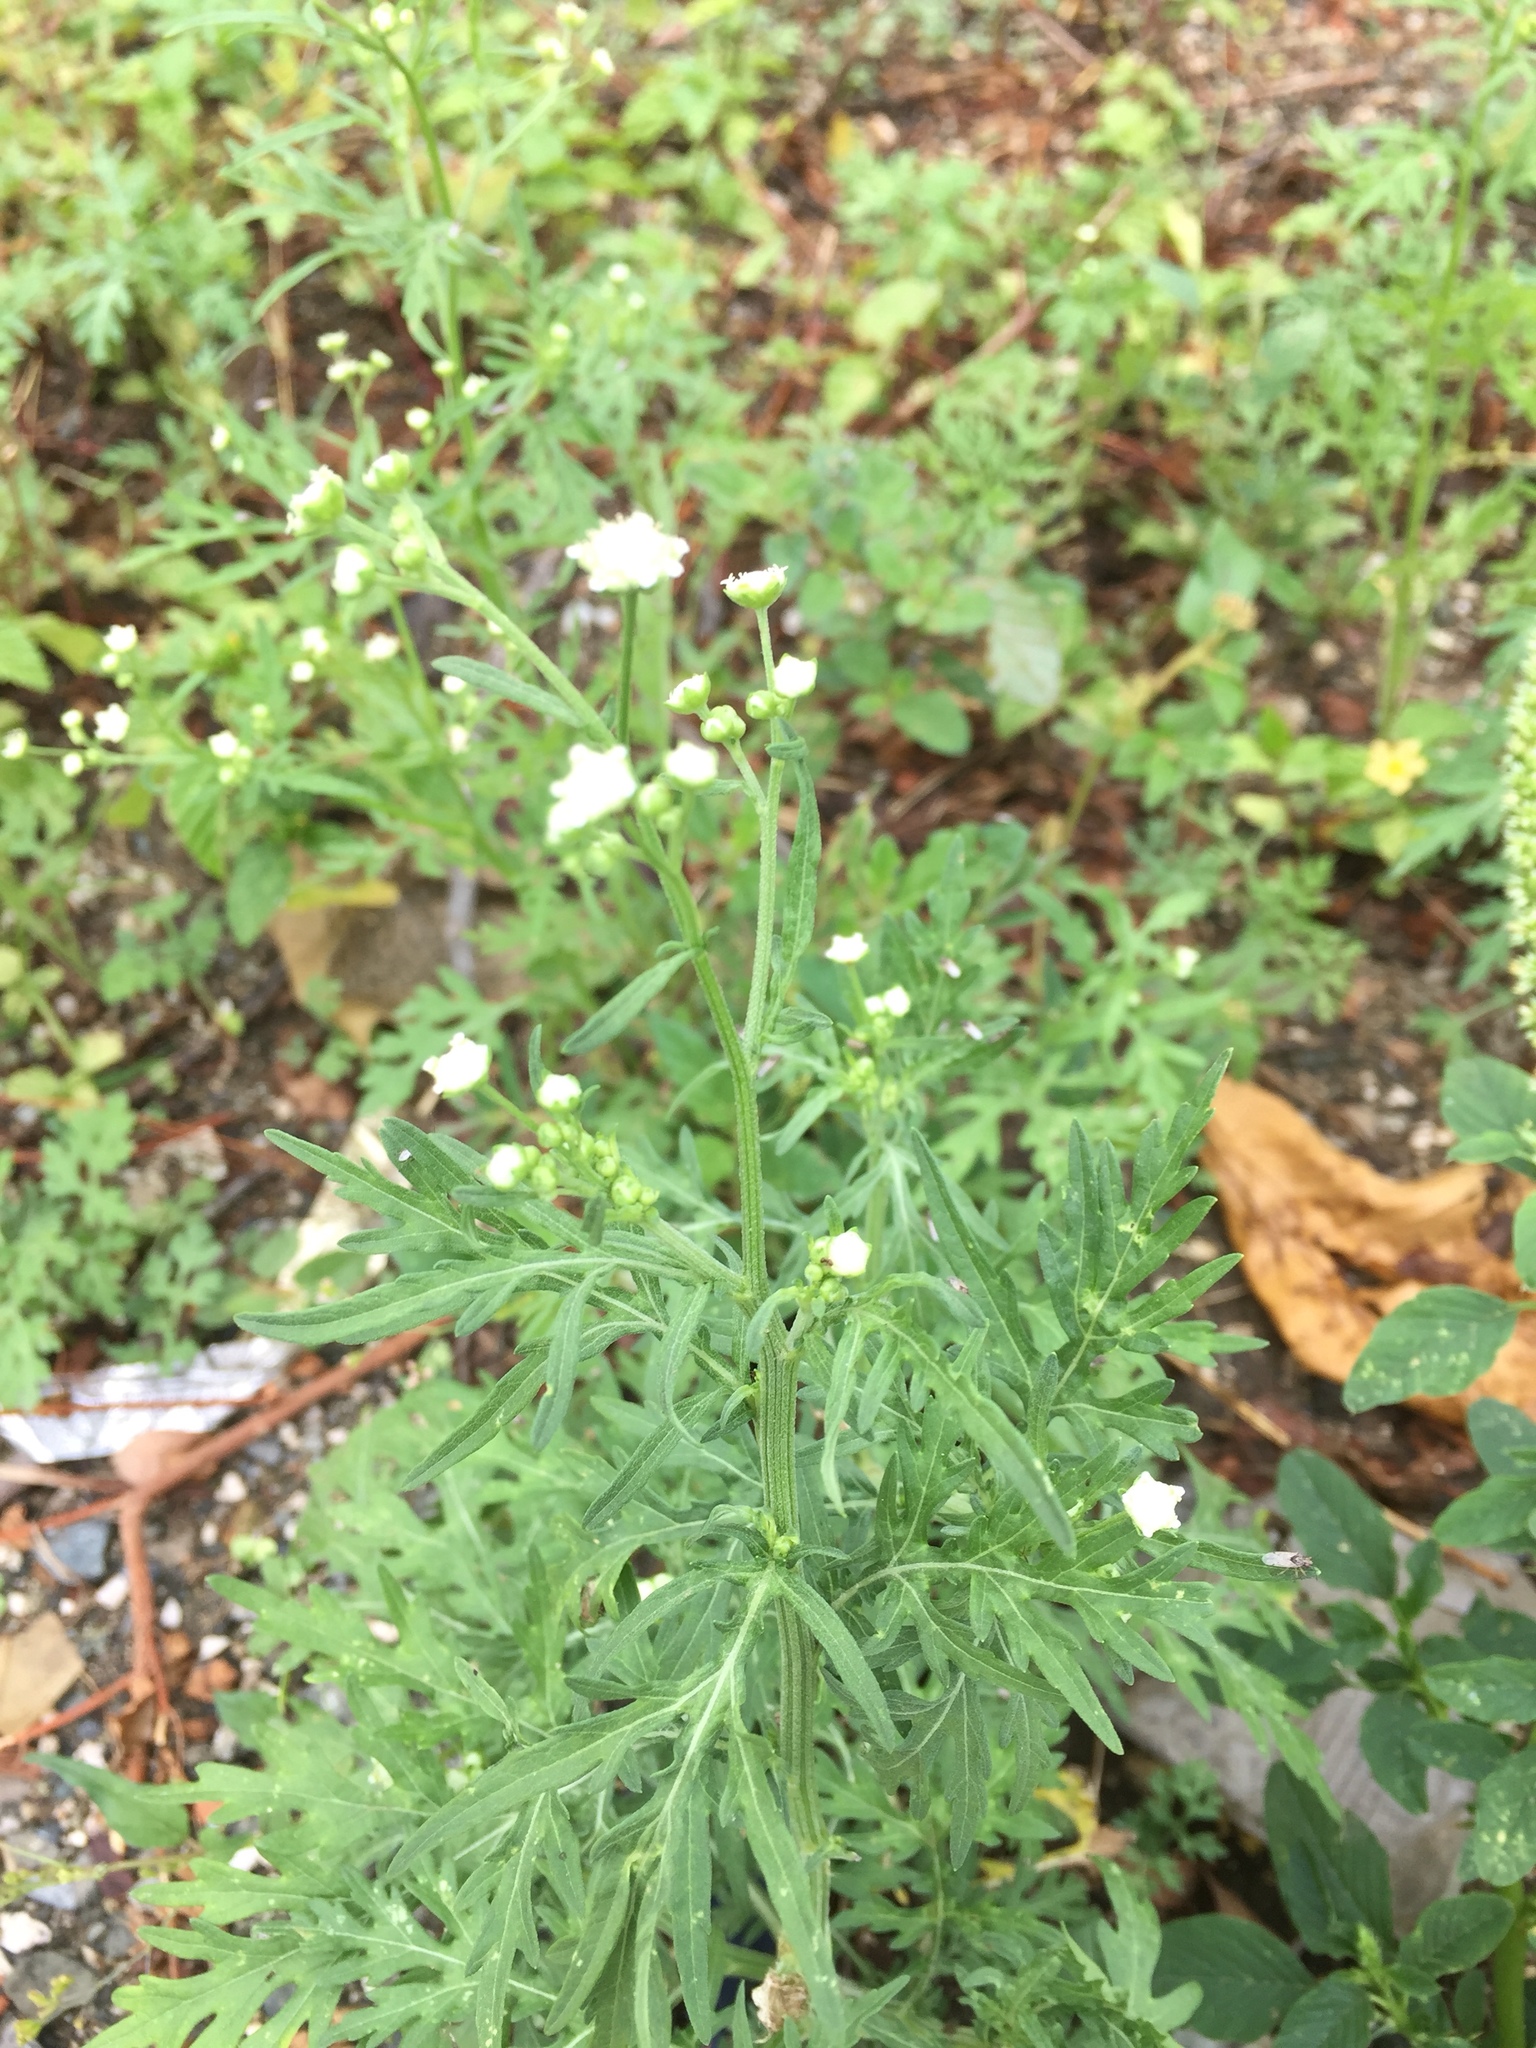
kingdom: Plantae
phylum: Tracheophyta
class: Magnoliopsida
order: Asterales
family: Asteraceae
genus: Parthenium
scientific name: Parthenium hysterophorus
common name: Santa maria feverfew
